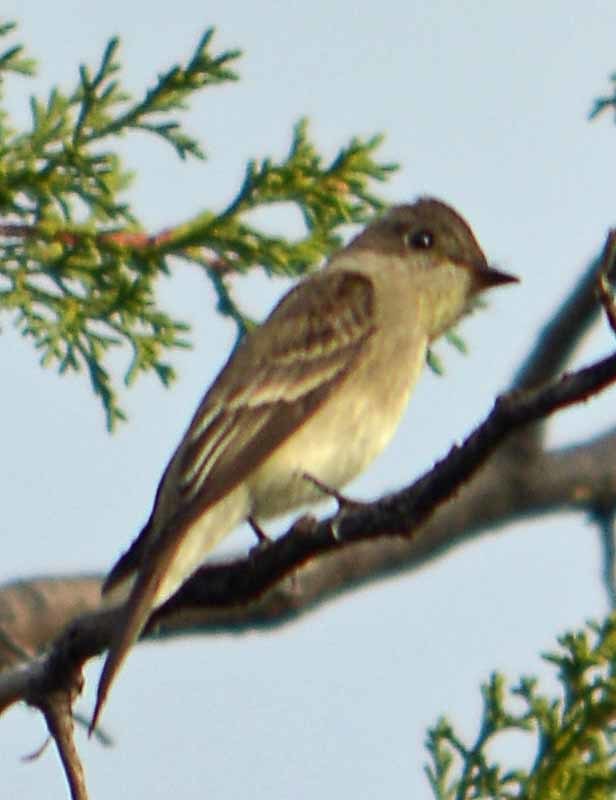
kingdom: Animalia
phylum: Chordata
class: Aves
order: Passeriformes
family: Tyrannidae
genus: Contopus
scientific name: Contopus sordidulus
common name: Western wood-pewee
